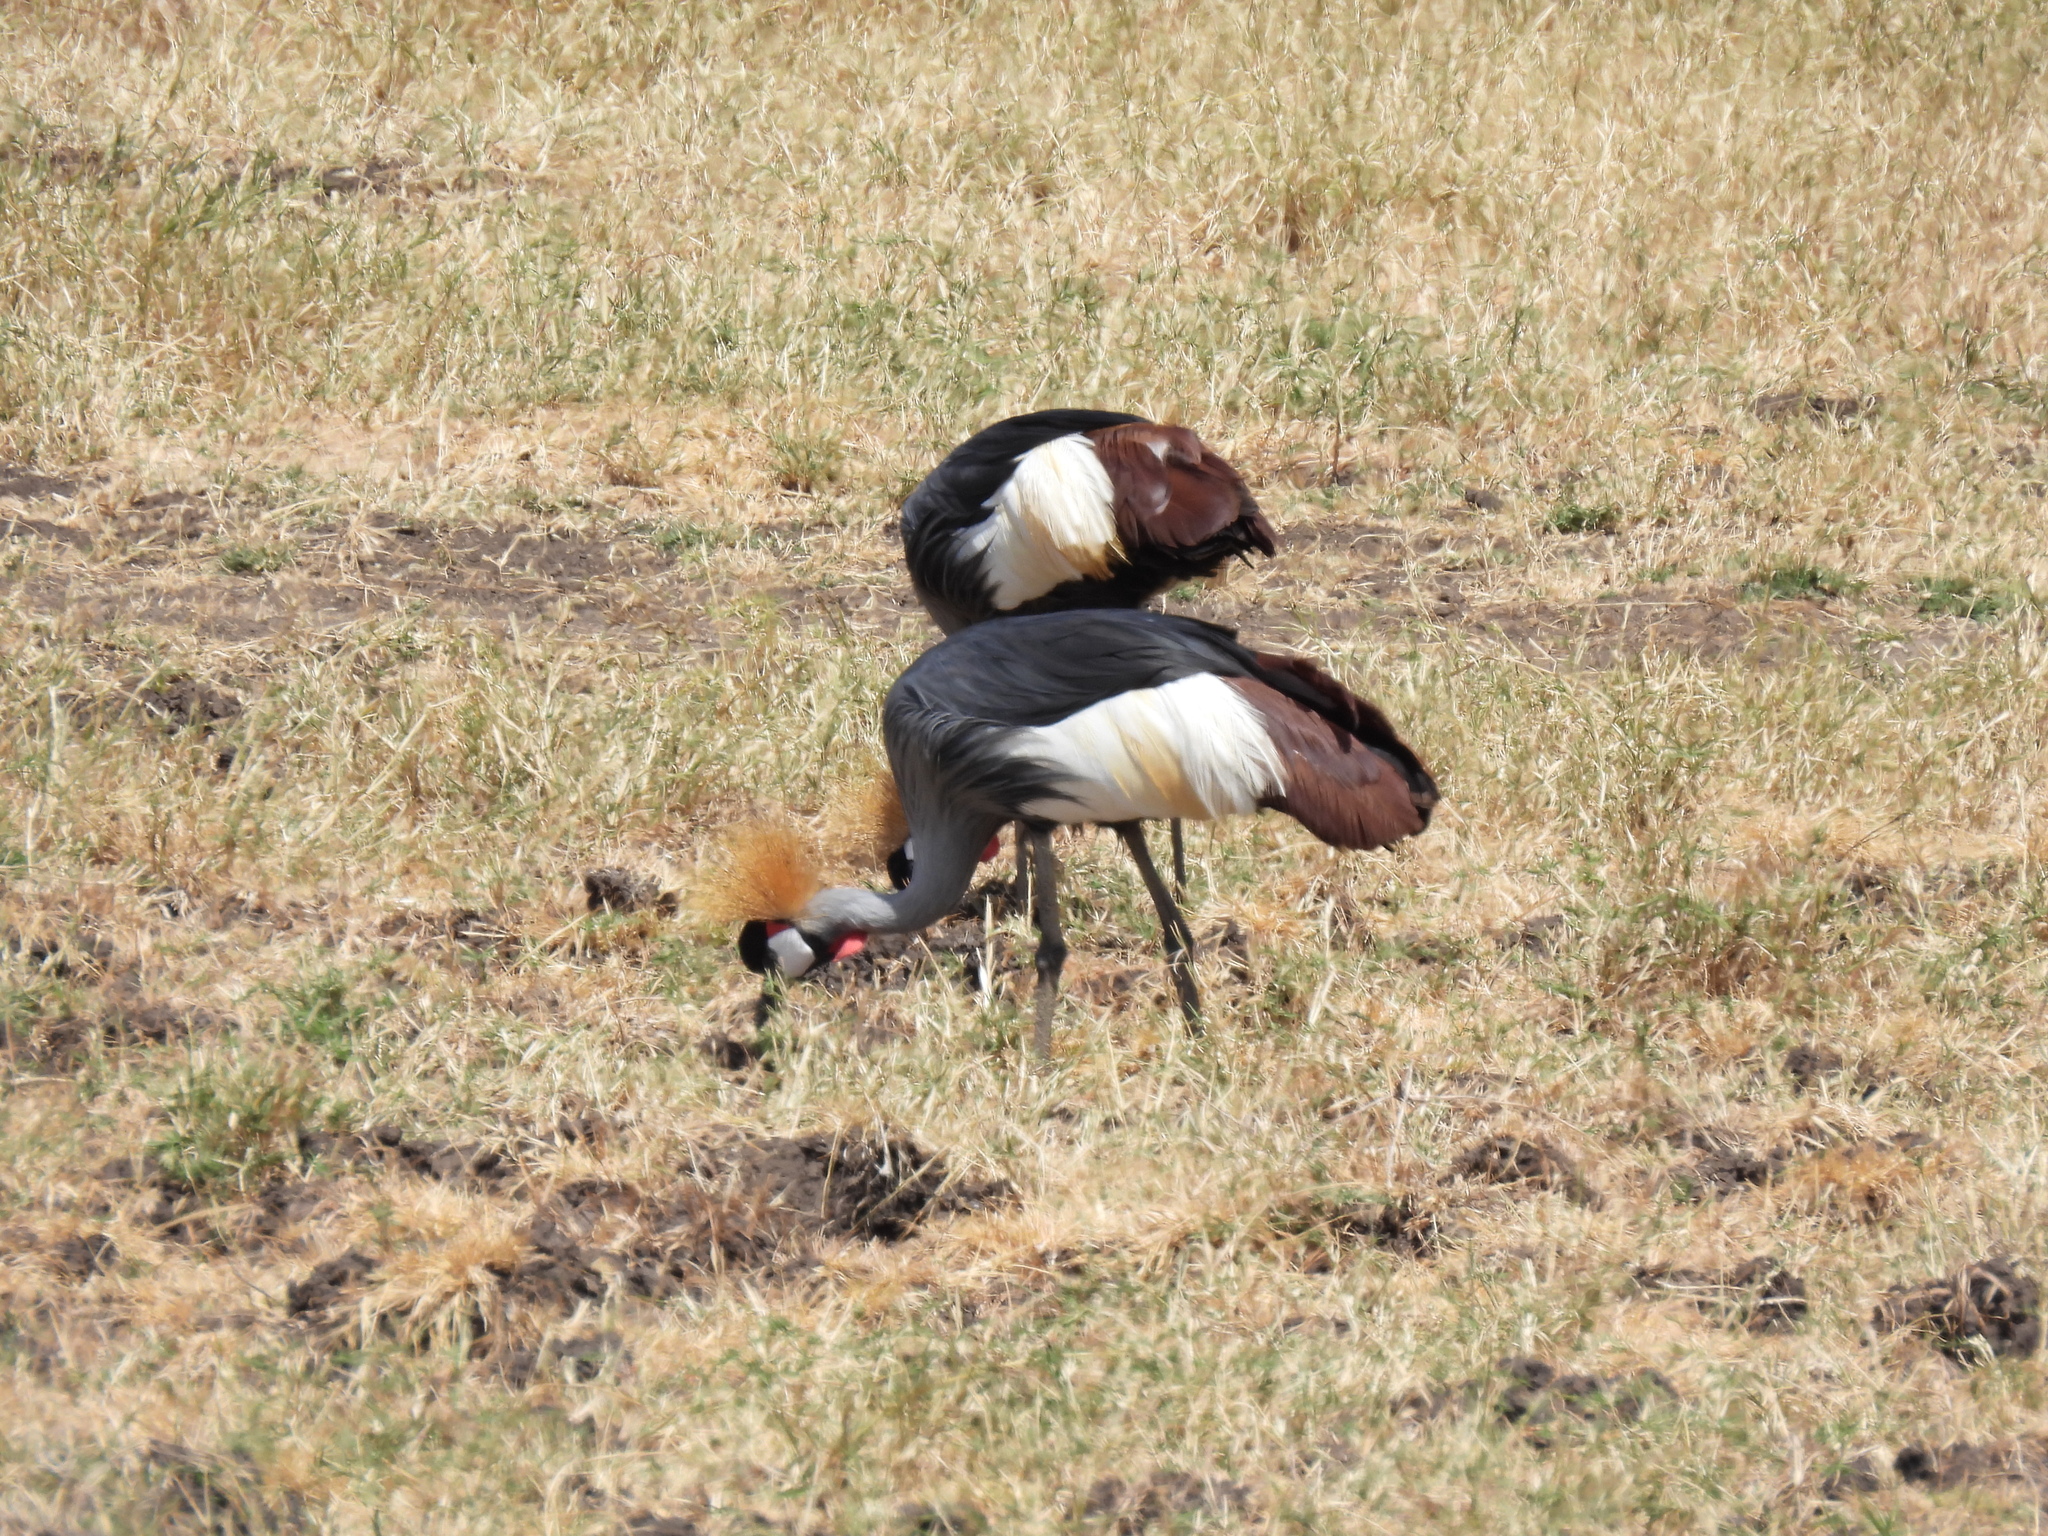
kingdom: Animalia
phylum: Chordata
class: Aves
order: Gruiformes
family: Gruidae
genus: Balearica
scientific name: Balearica regulorum
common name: Grey crowned crane
